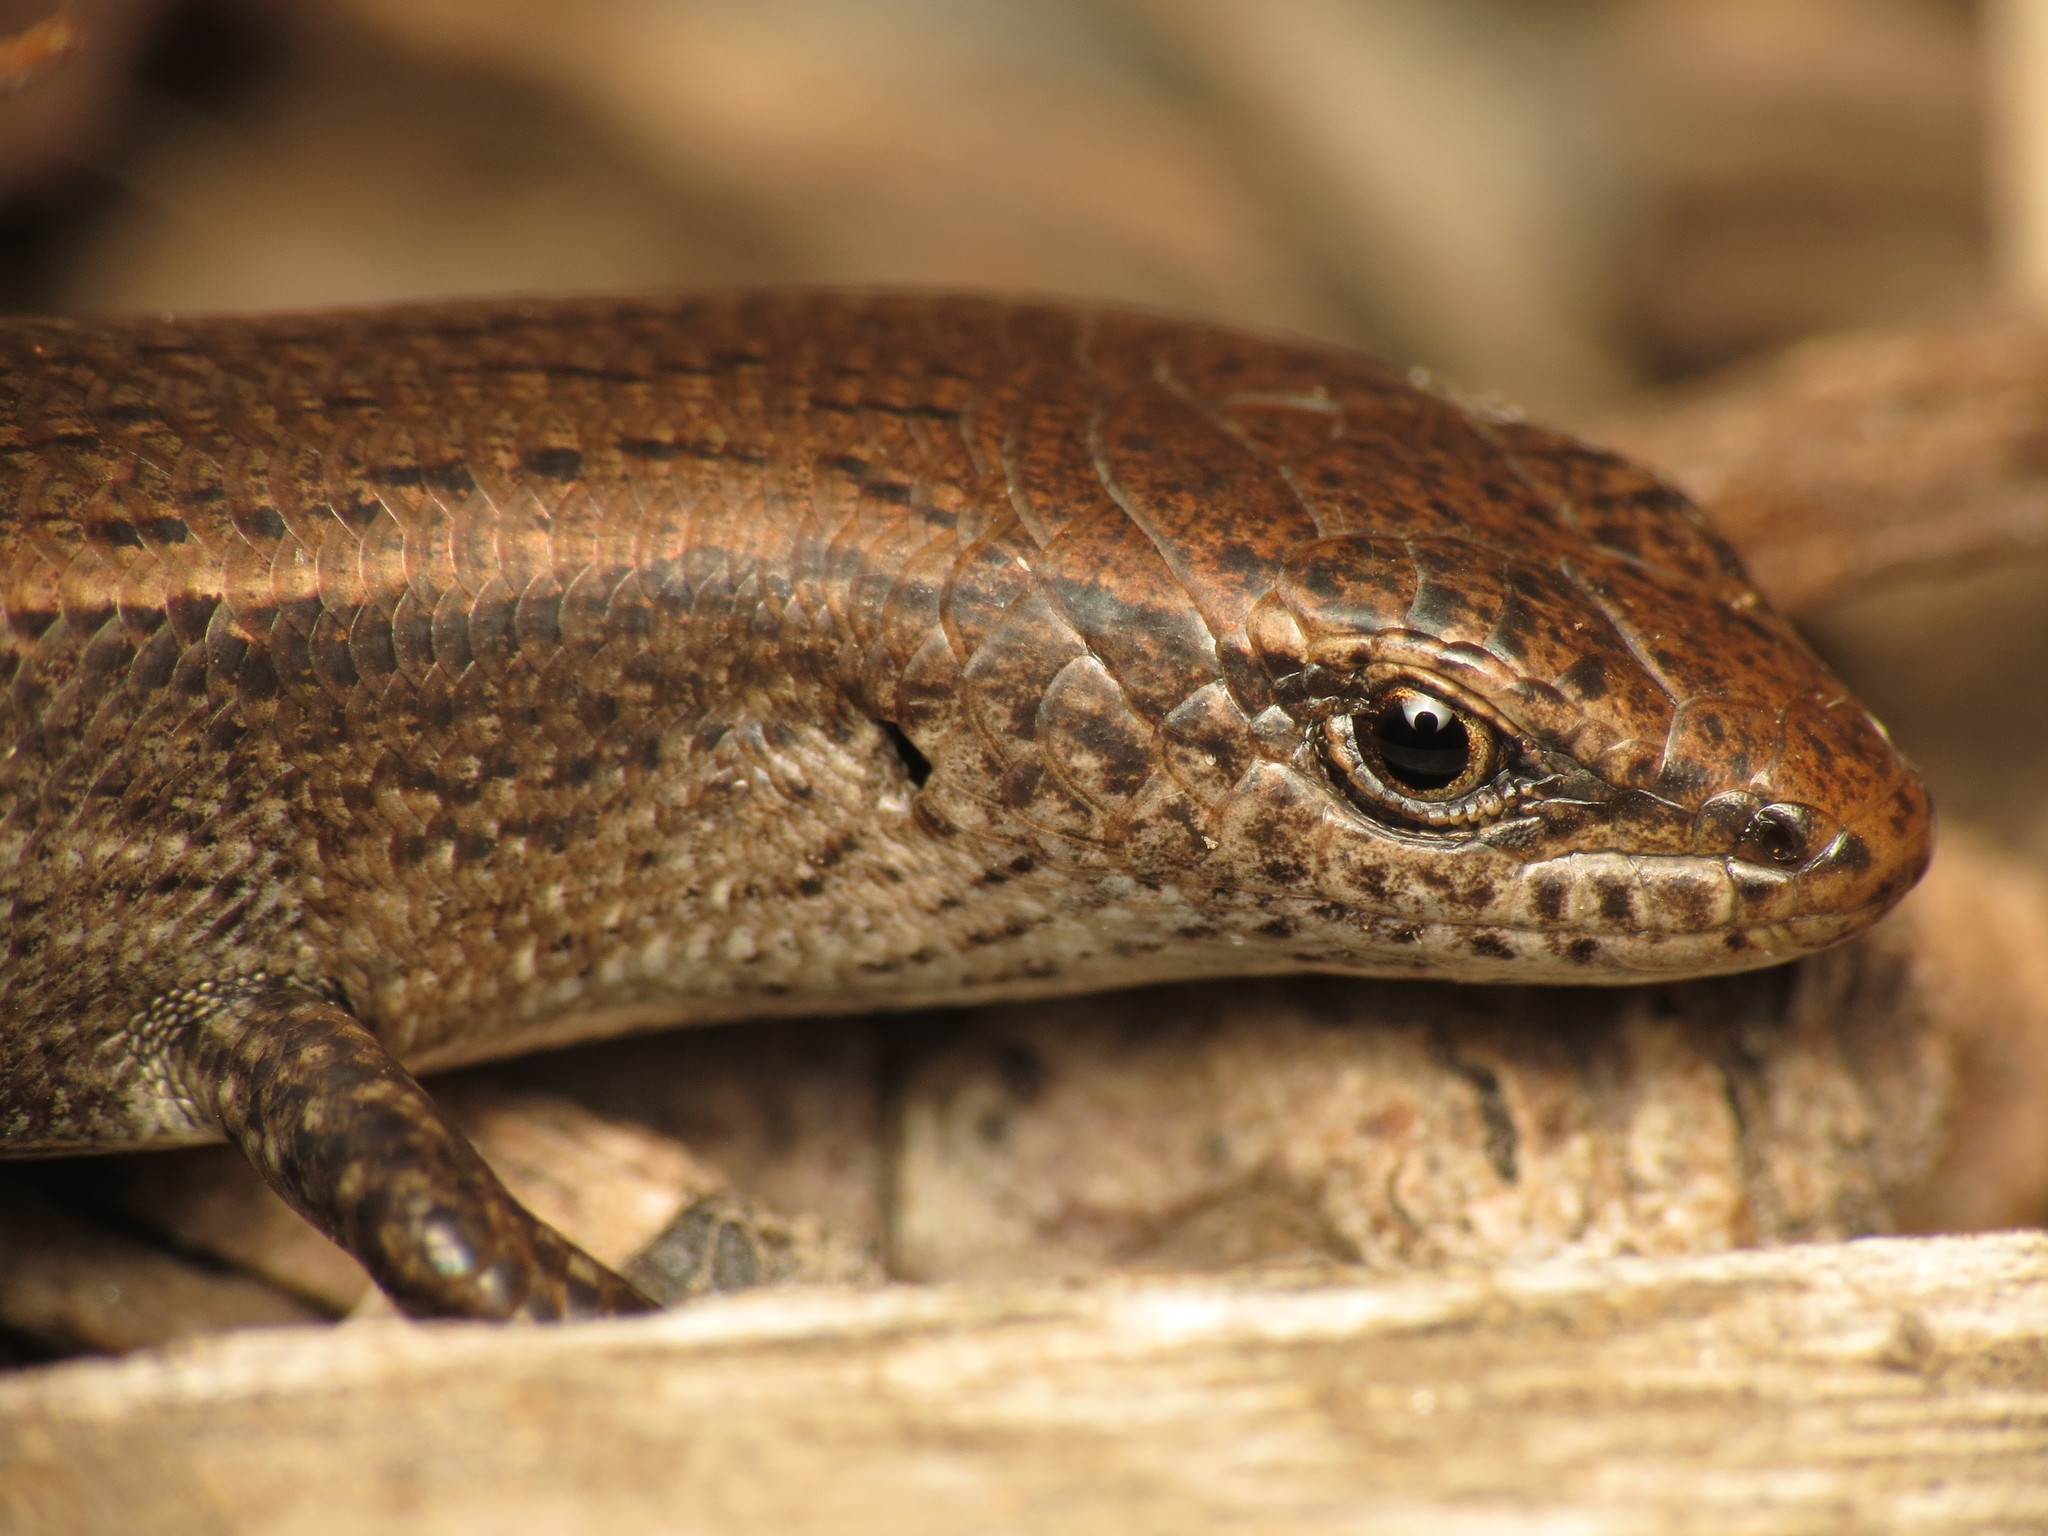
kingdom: Animalia
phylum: Chordata
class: Squamata
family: Scincidae
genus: Lampropholis
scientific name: Lampropholis delicata
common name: Plague skink
